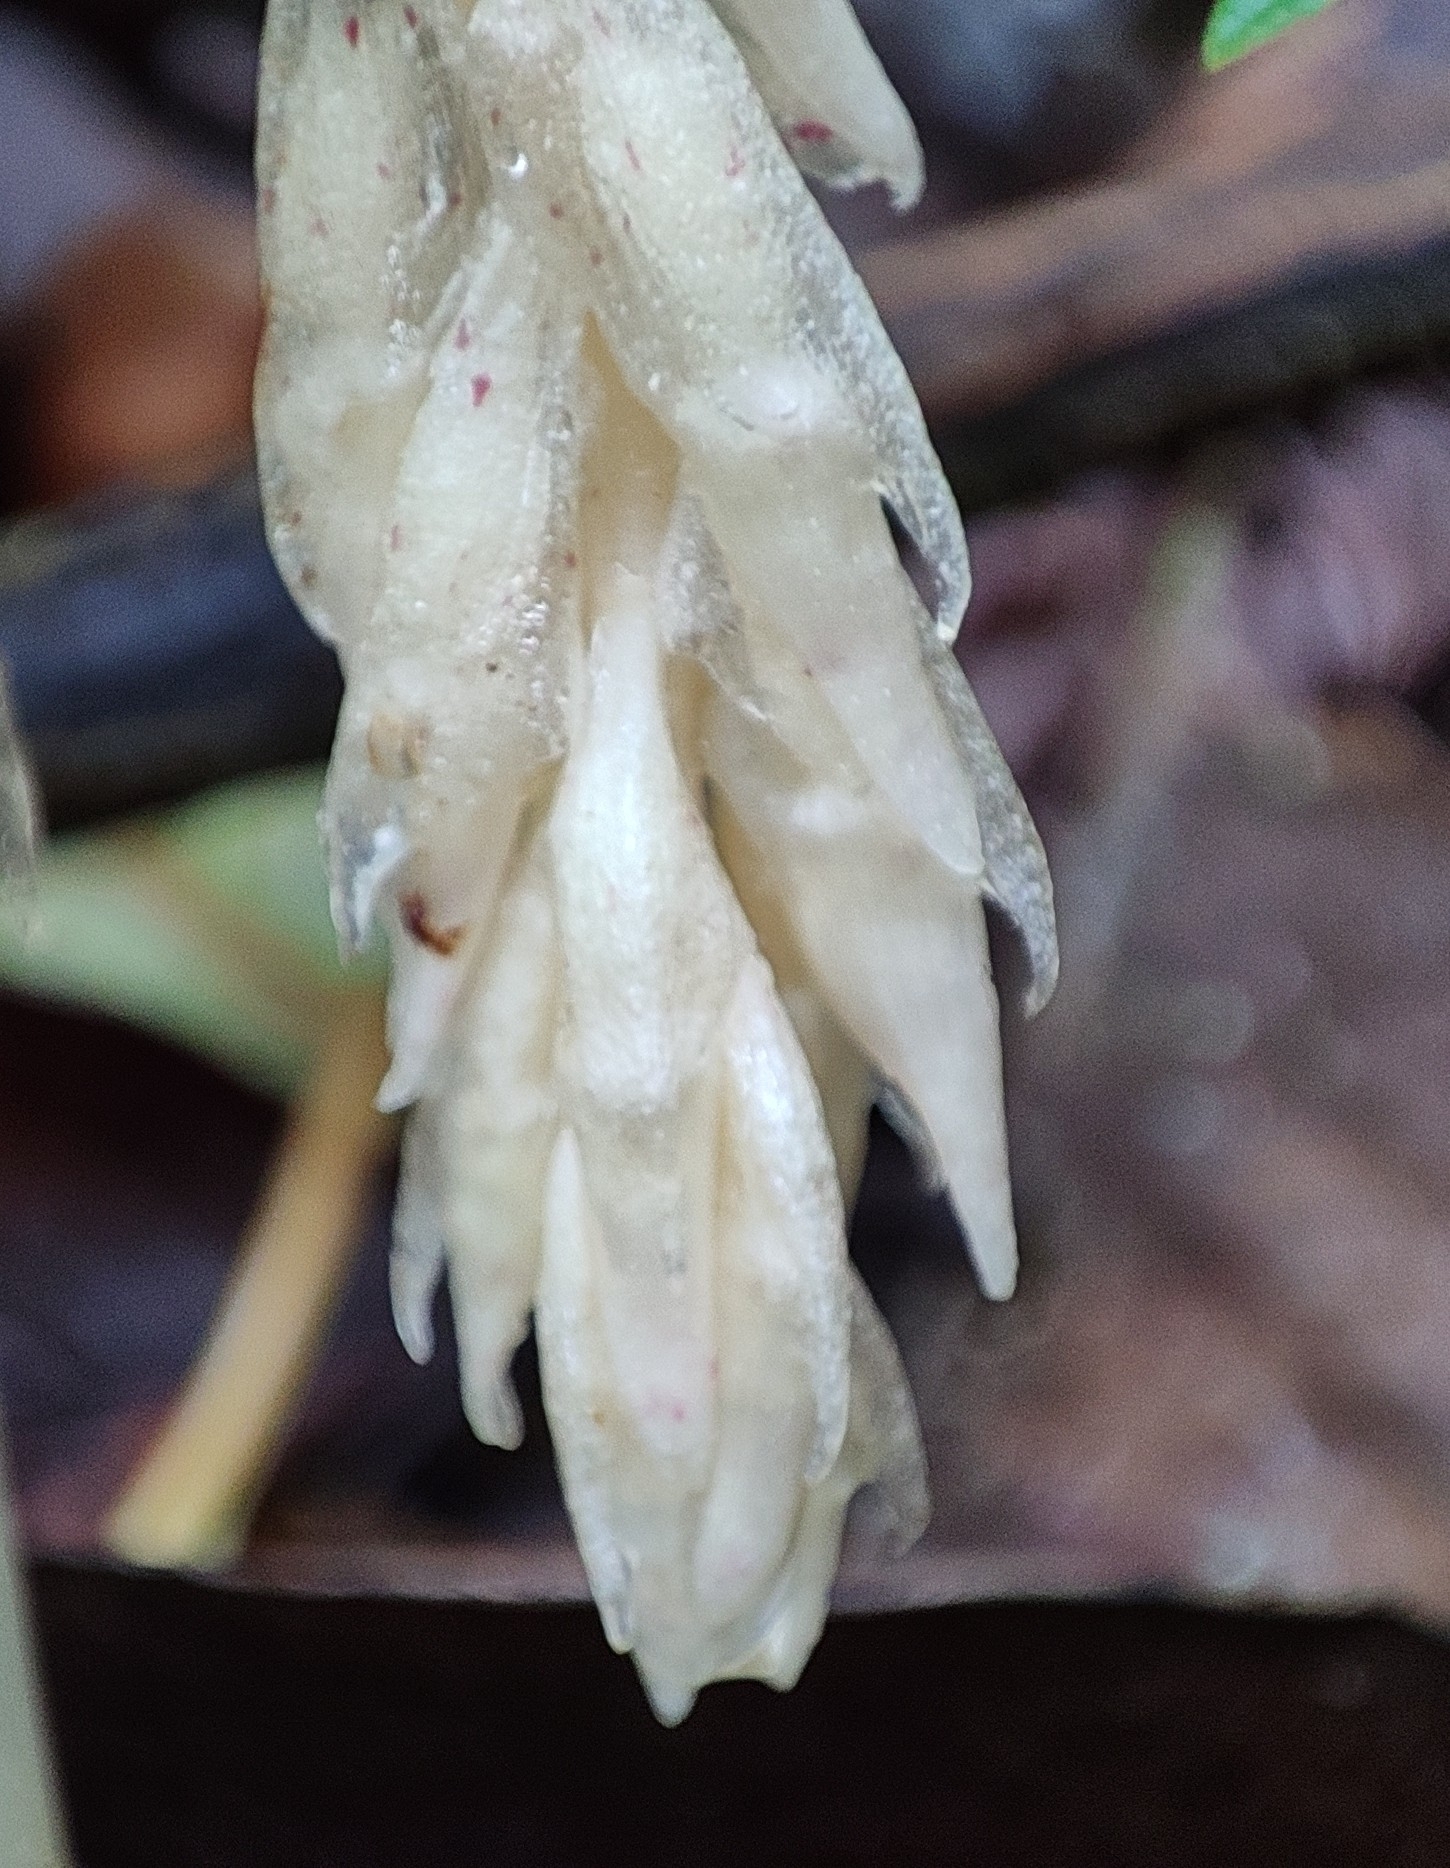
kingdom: Plantae
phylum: Tracheophyta
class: Liliopsida
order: Asparagales
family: Orchidaceae
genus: Epipogium
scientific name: Epipogium roseum
